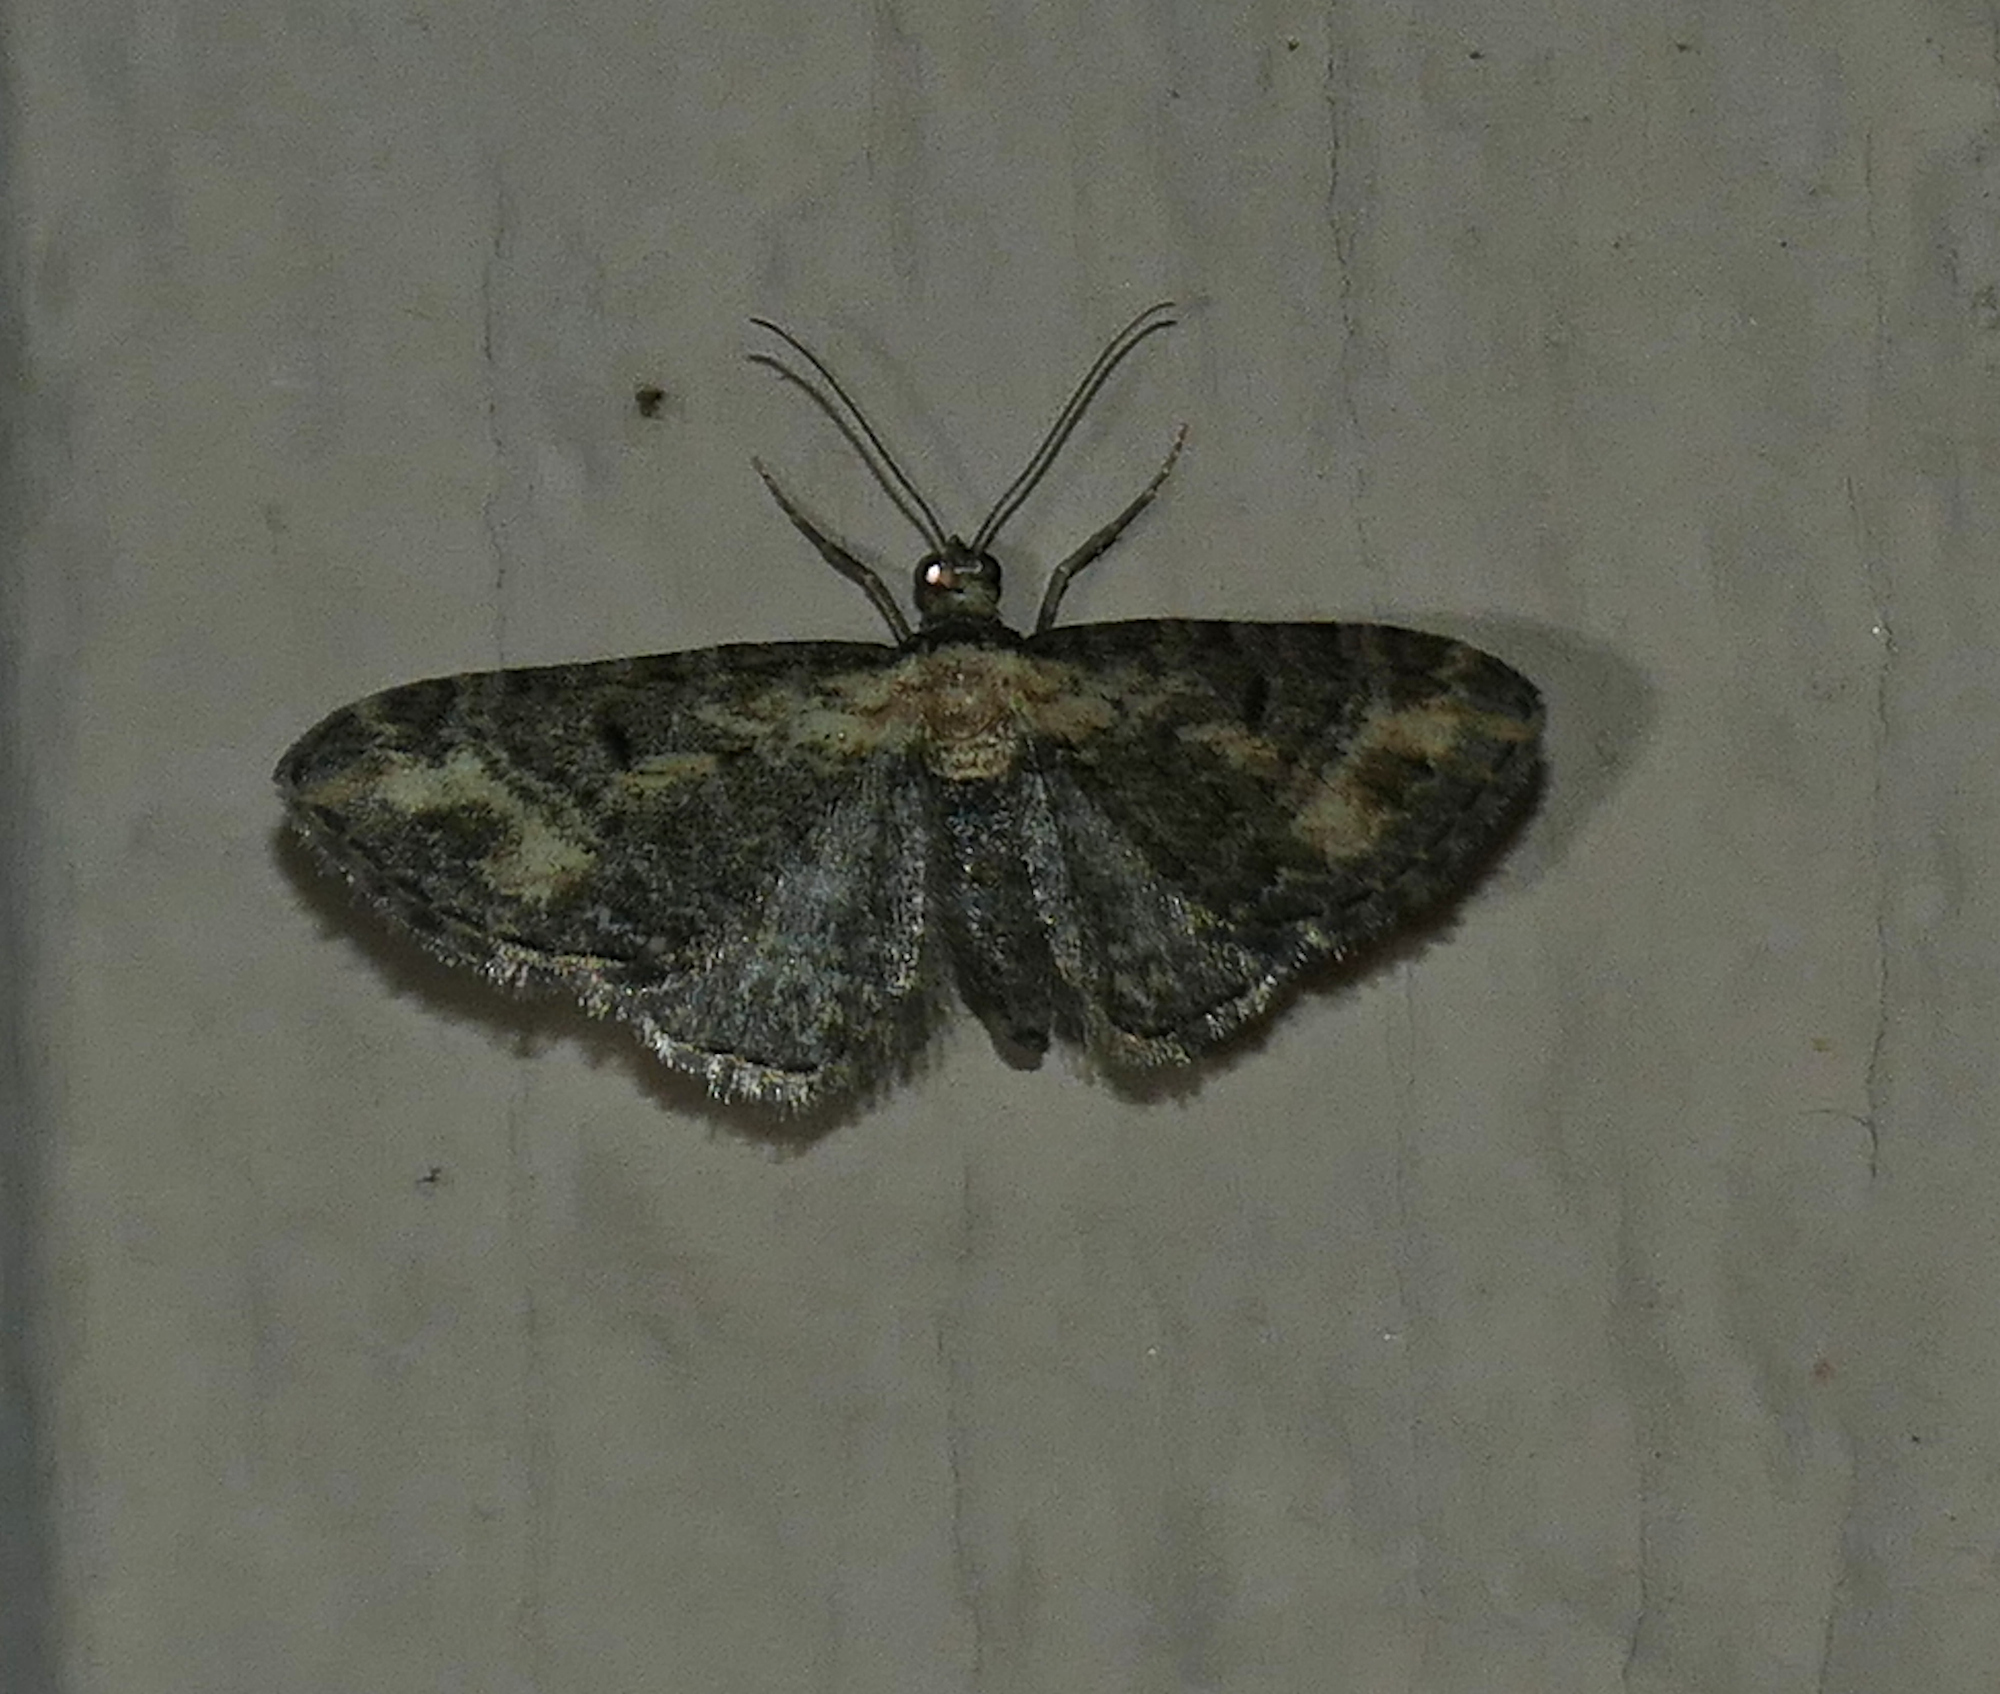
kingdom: Animalia
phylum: Arthropoda
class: Insecta
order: Lepidoptera
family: Geometridae
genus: Eupithecia
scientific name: Eupithecia flavigutta
